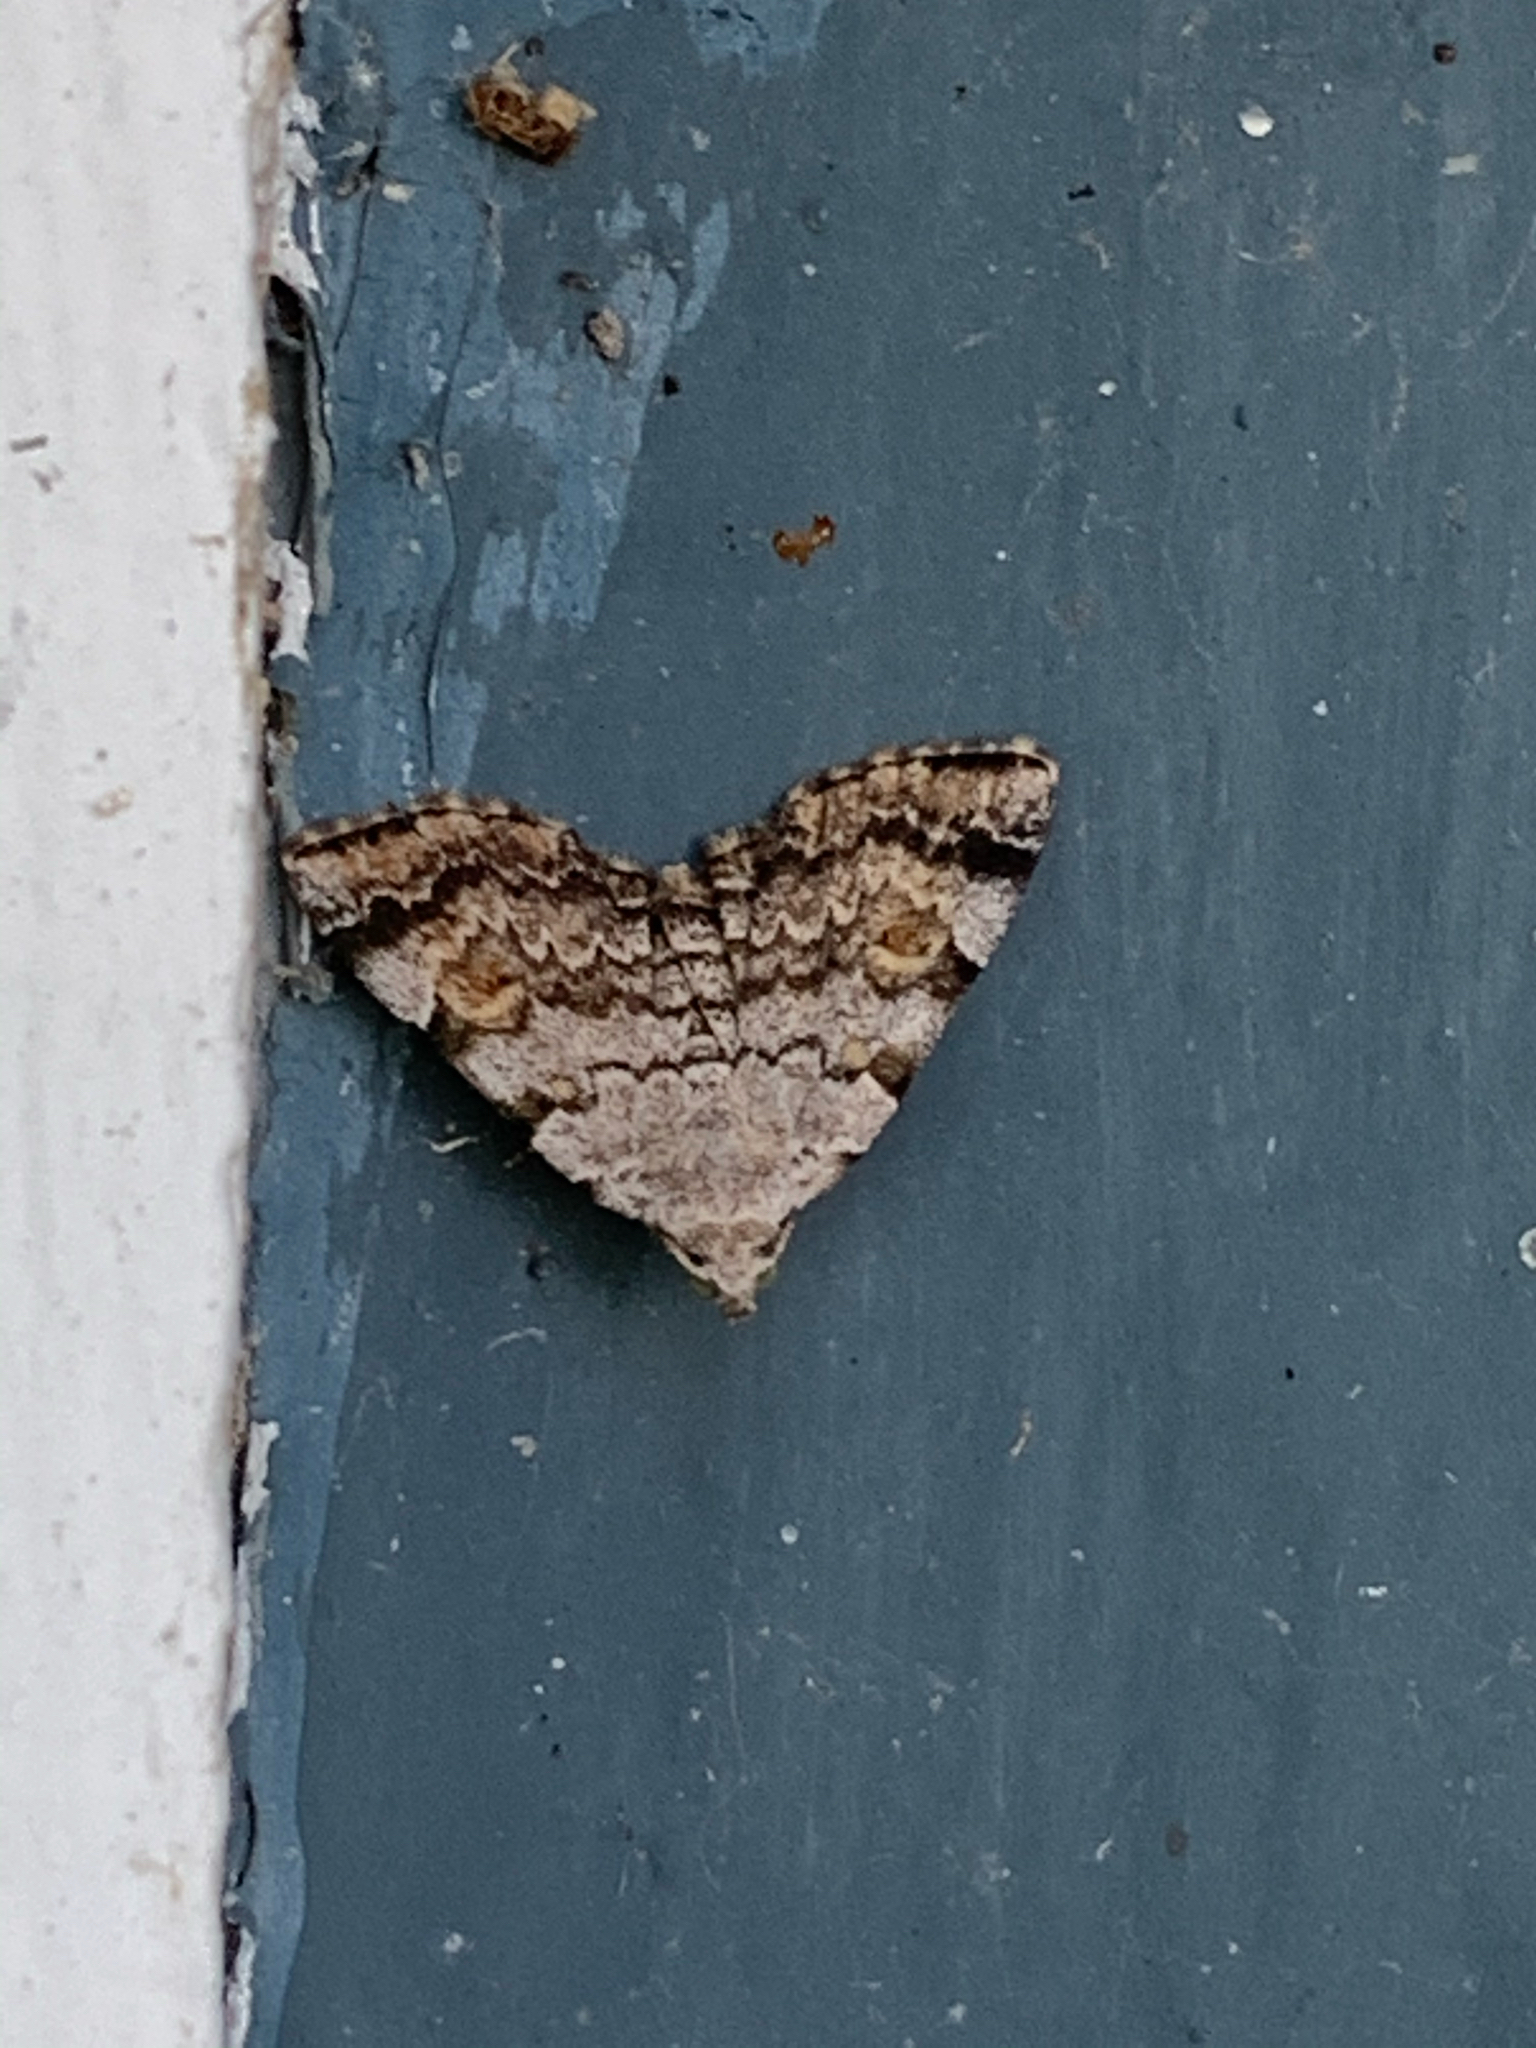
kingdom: Animalia
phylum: Arthropoda
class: Insecta
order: Lepidoptera
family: Erebidae
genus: Idia
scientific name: Idia americalis
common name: American idia moth
